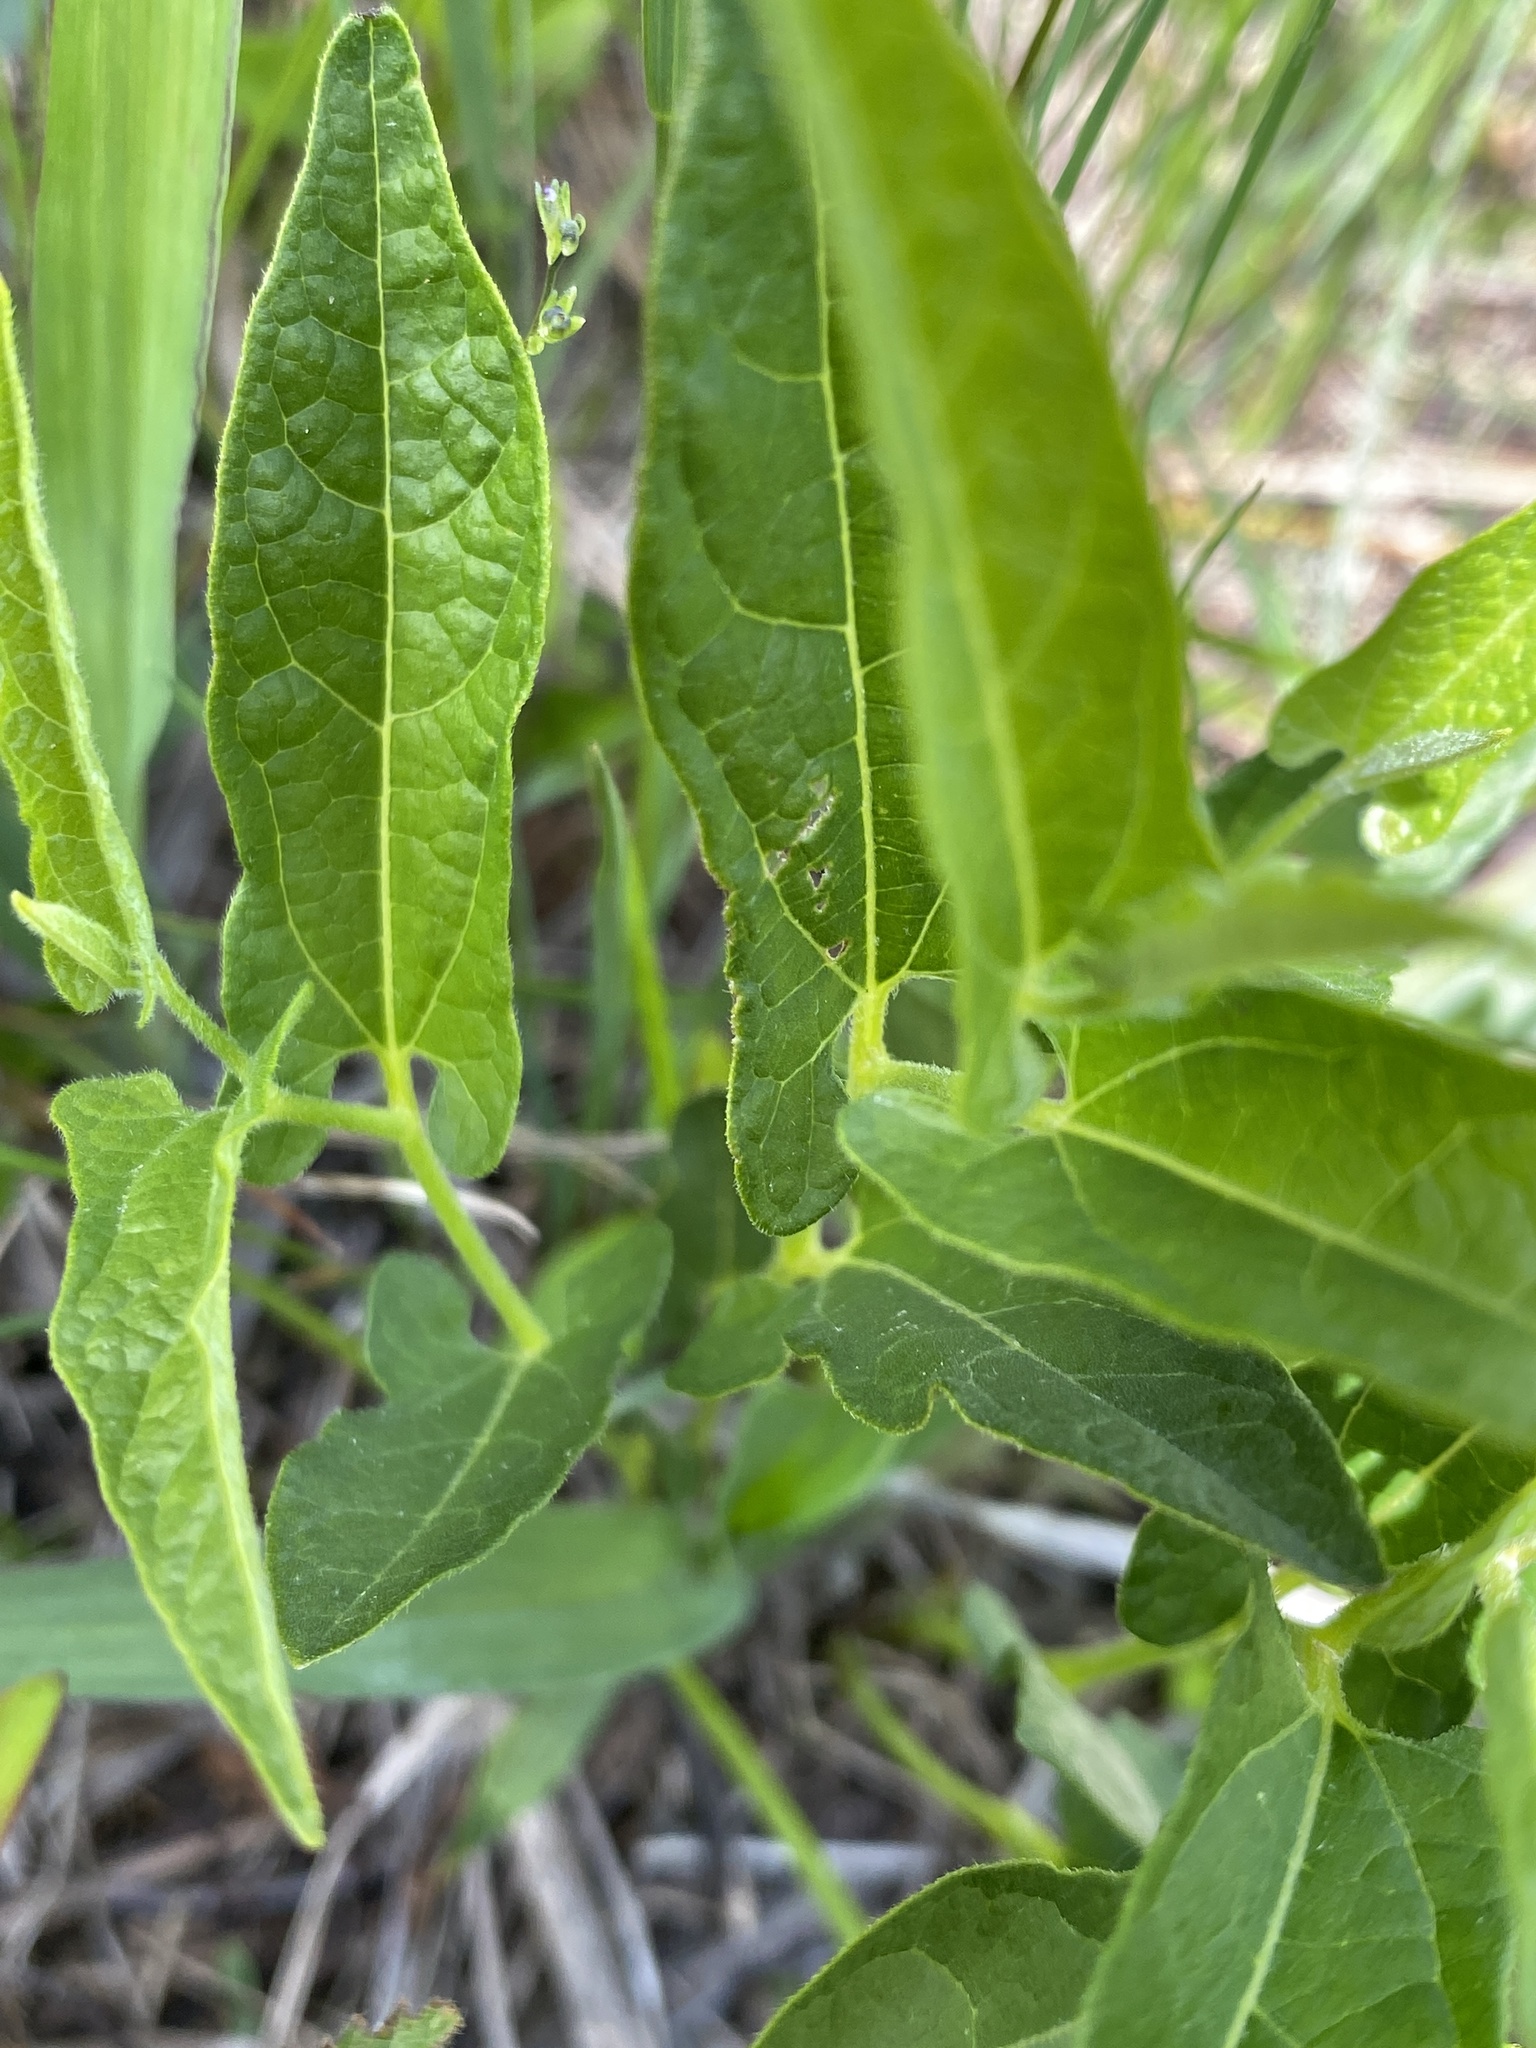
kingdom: Plantae
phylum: Tracheophyta
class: Magnoliopsida
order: Piperales
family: Aristolochiaceae
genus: Endodeca
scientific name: Endodeca serpentaria
